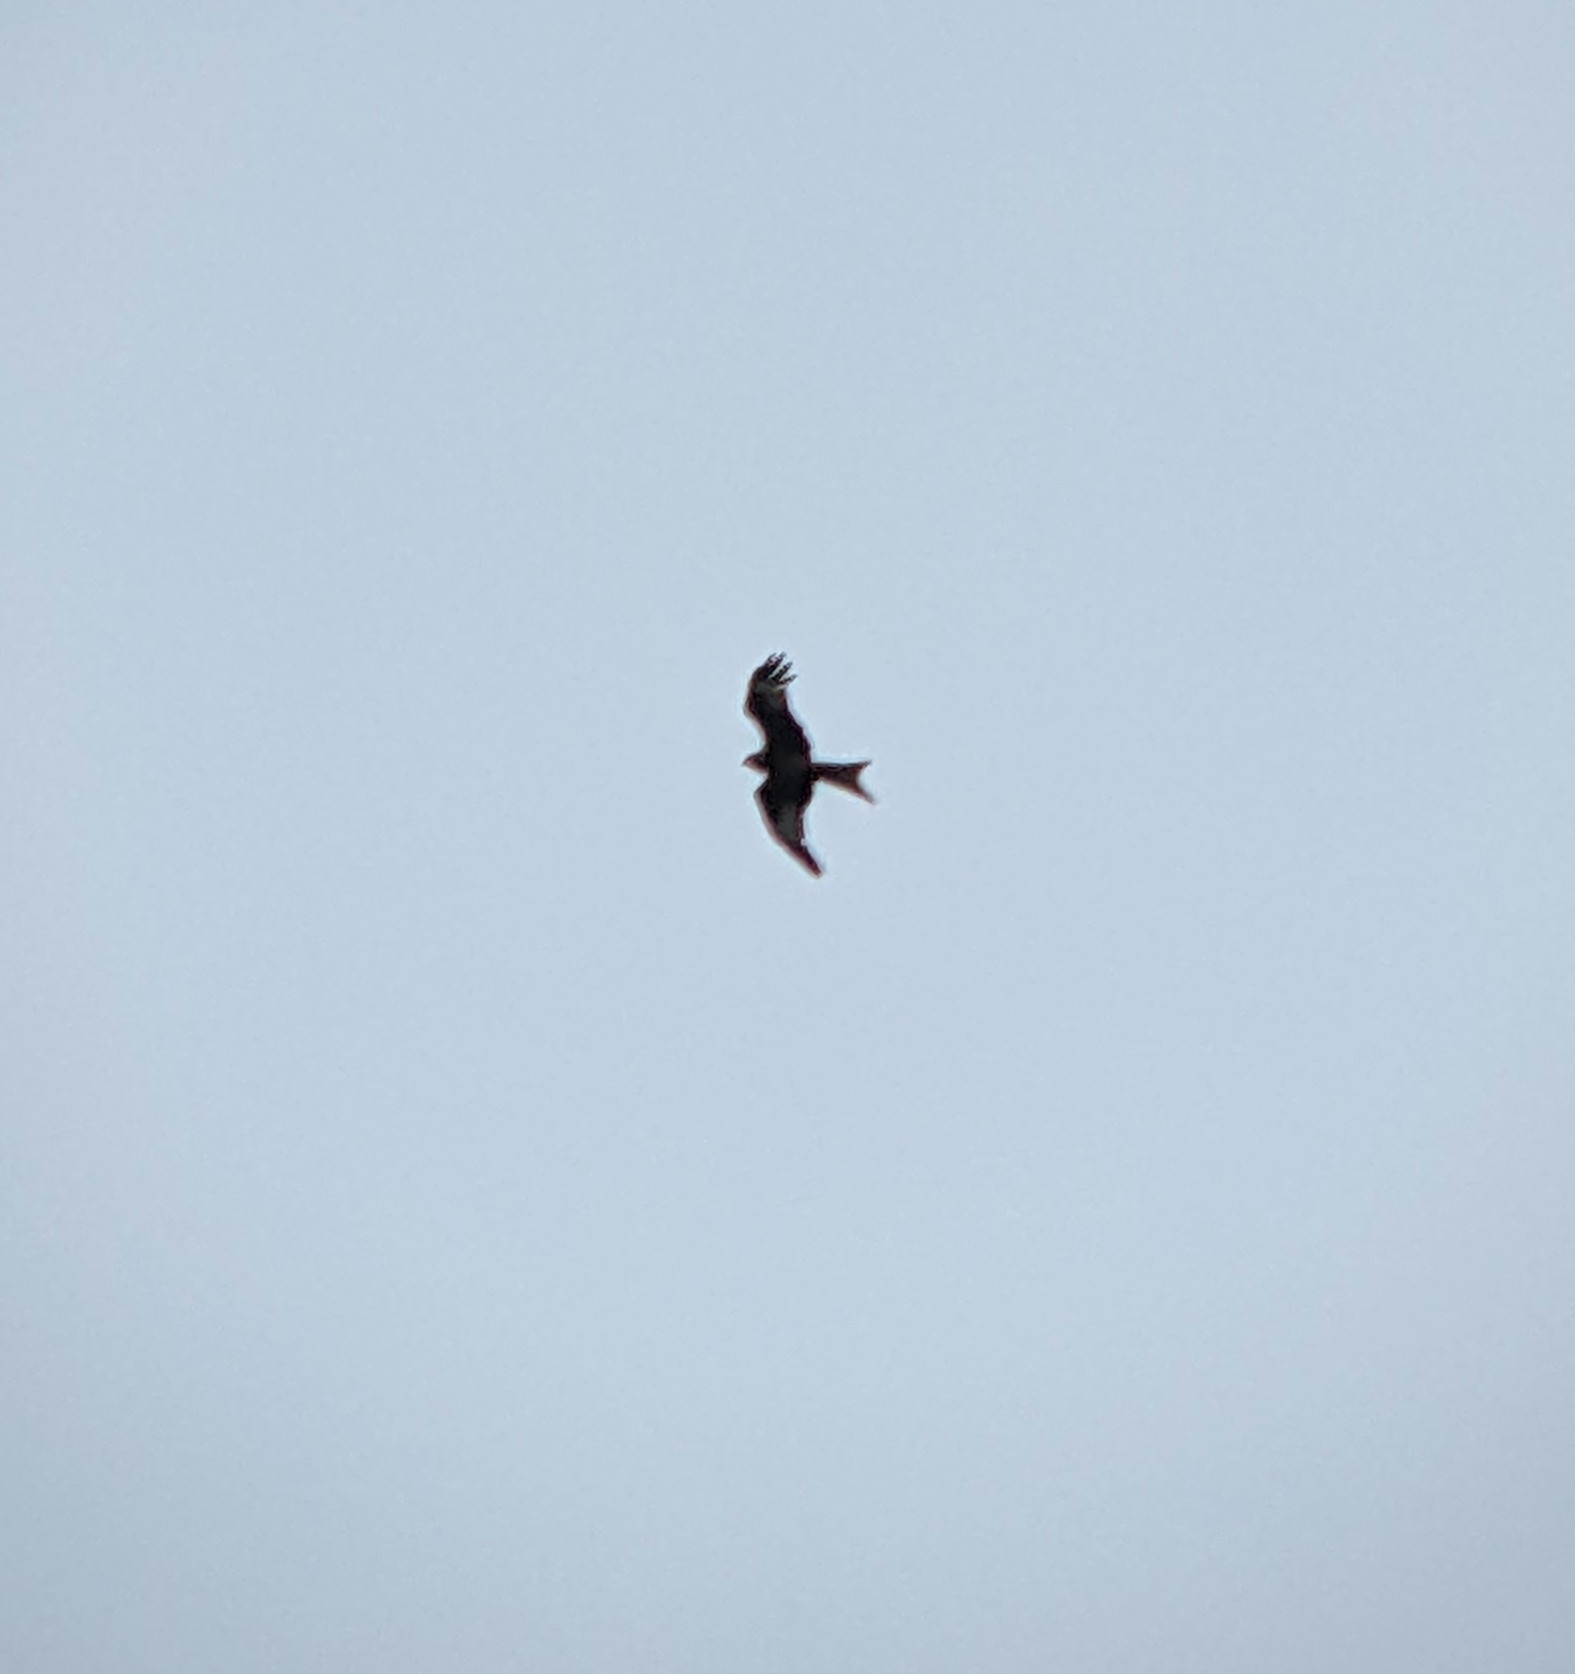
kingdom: Animalia
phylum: Chordata
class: Aves
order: Accipitriformes
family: Accipitridae
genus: Milvus
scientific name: Milvus milvus
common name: Red kite
